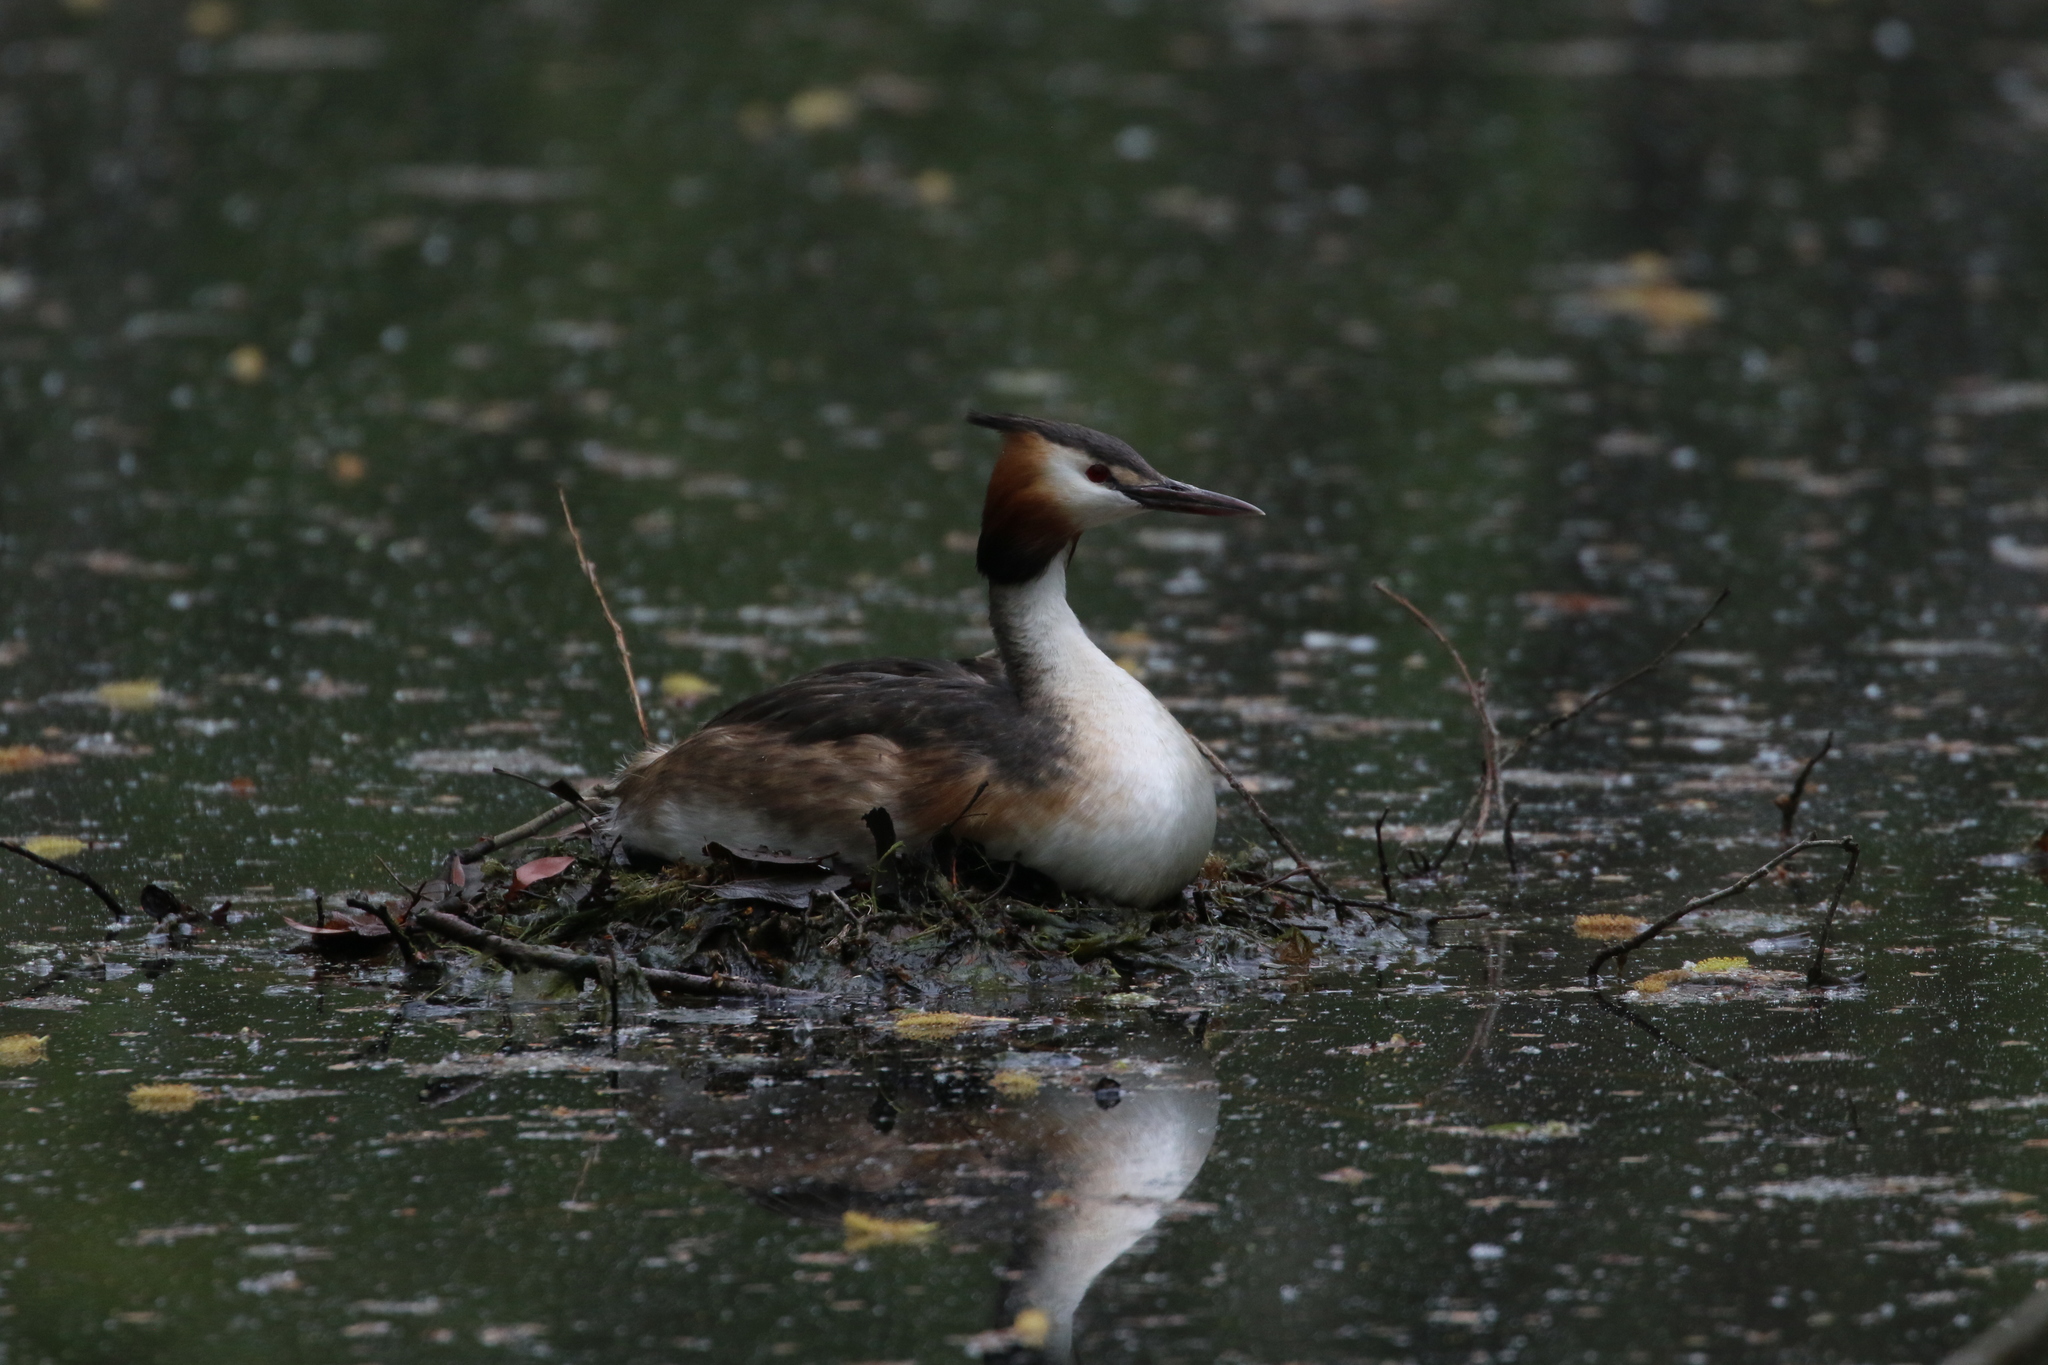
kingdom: Animalia
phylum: Chordata
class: Aves
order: Podicipediformes
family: Podicipedidae
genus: Podiceps
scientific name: Podiceps cristatus
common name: Great crested grebe
